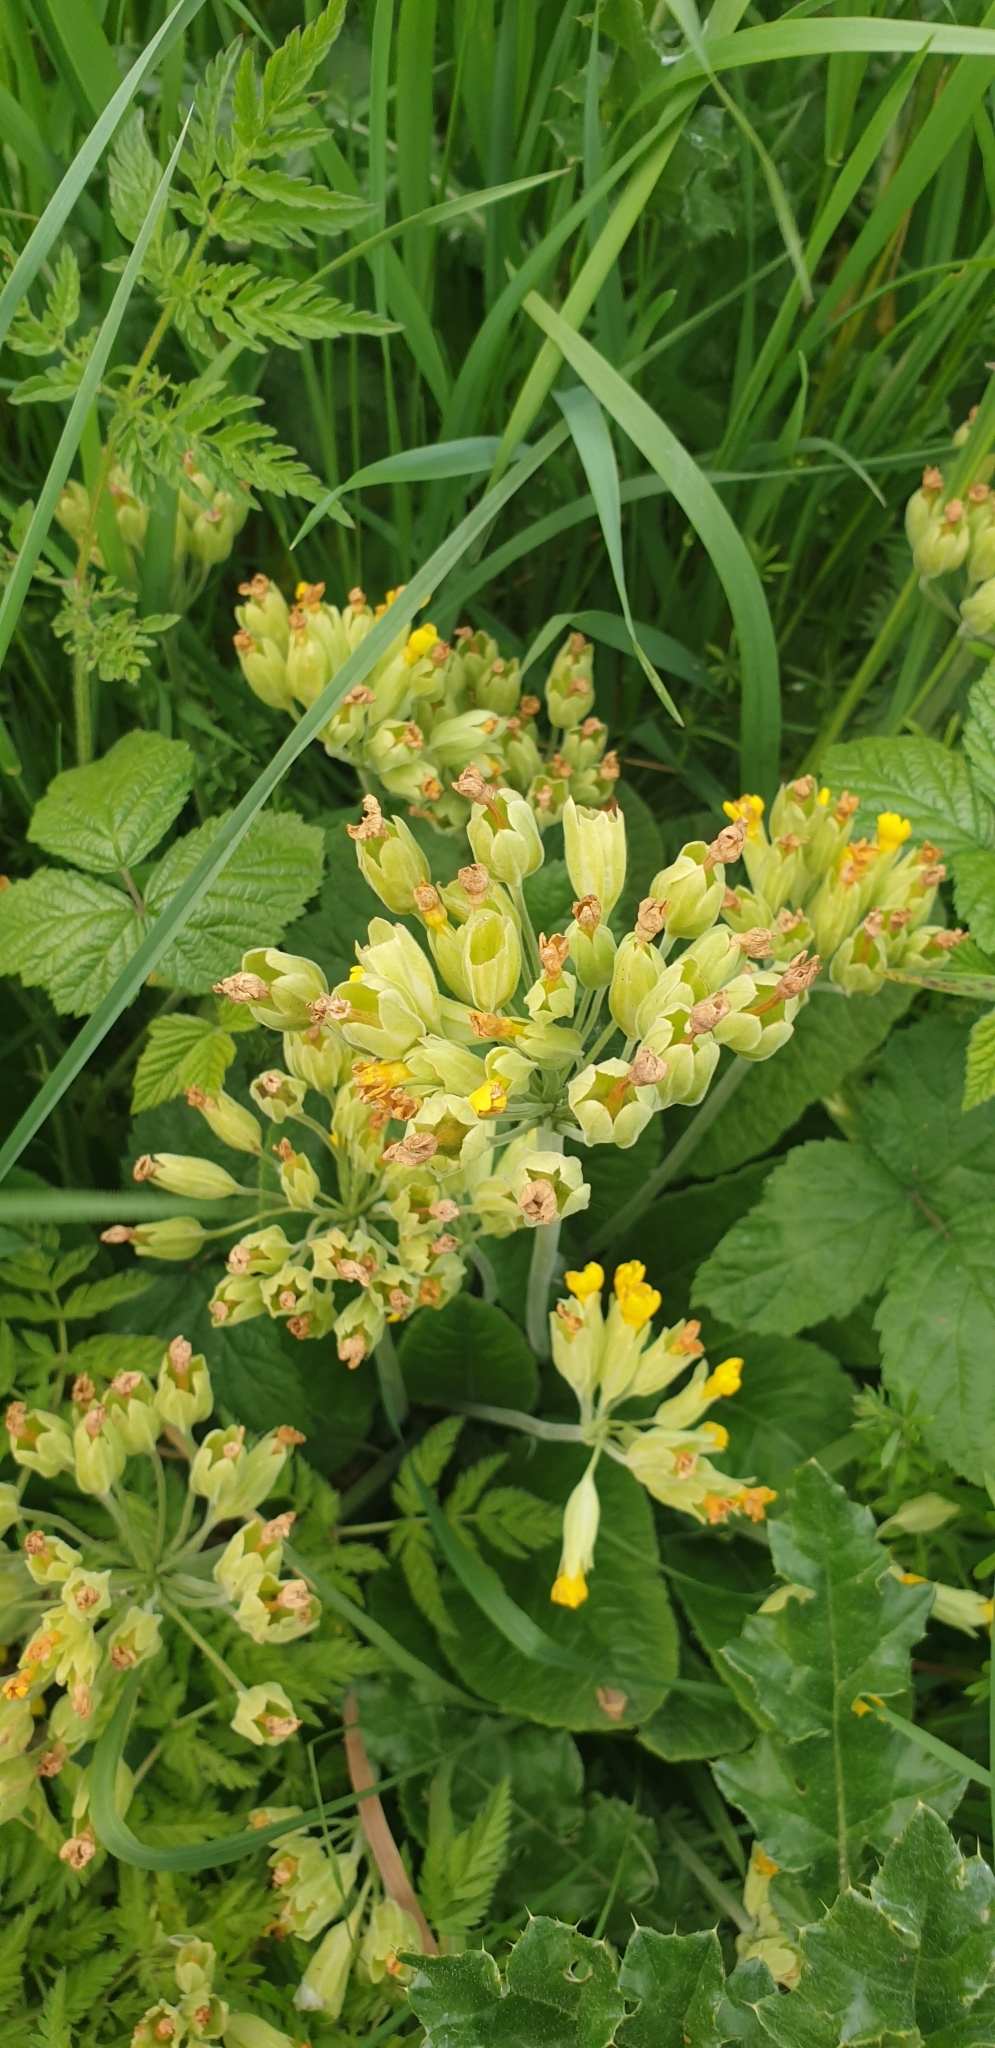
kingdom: Plantae
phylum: Tracheophyta
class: Magnoliopsida
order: Ericales
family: Primulaceae
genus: Primula
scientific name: Primula veris
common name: Cowslip
